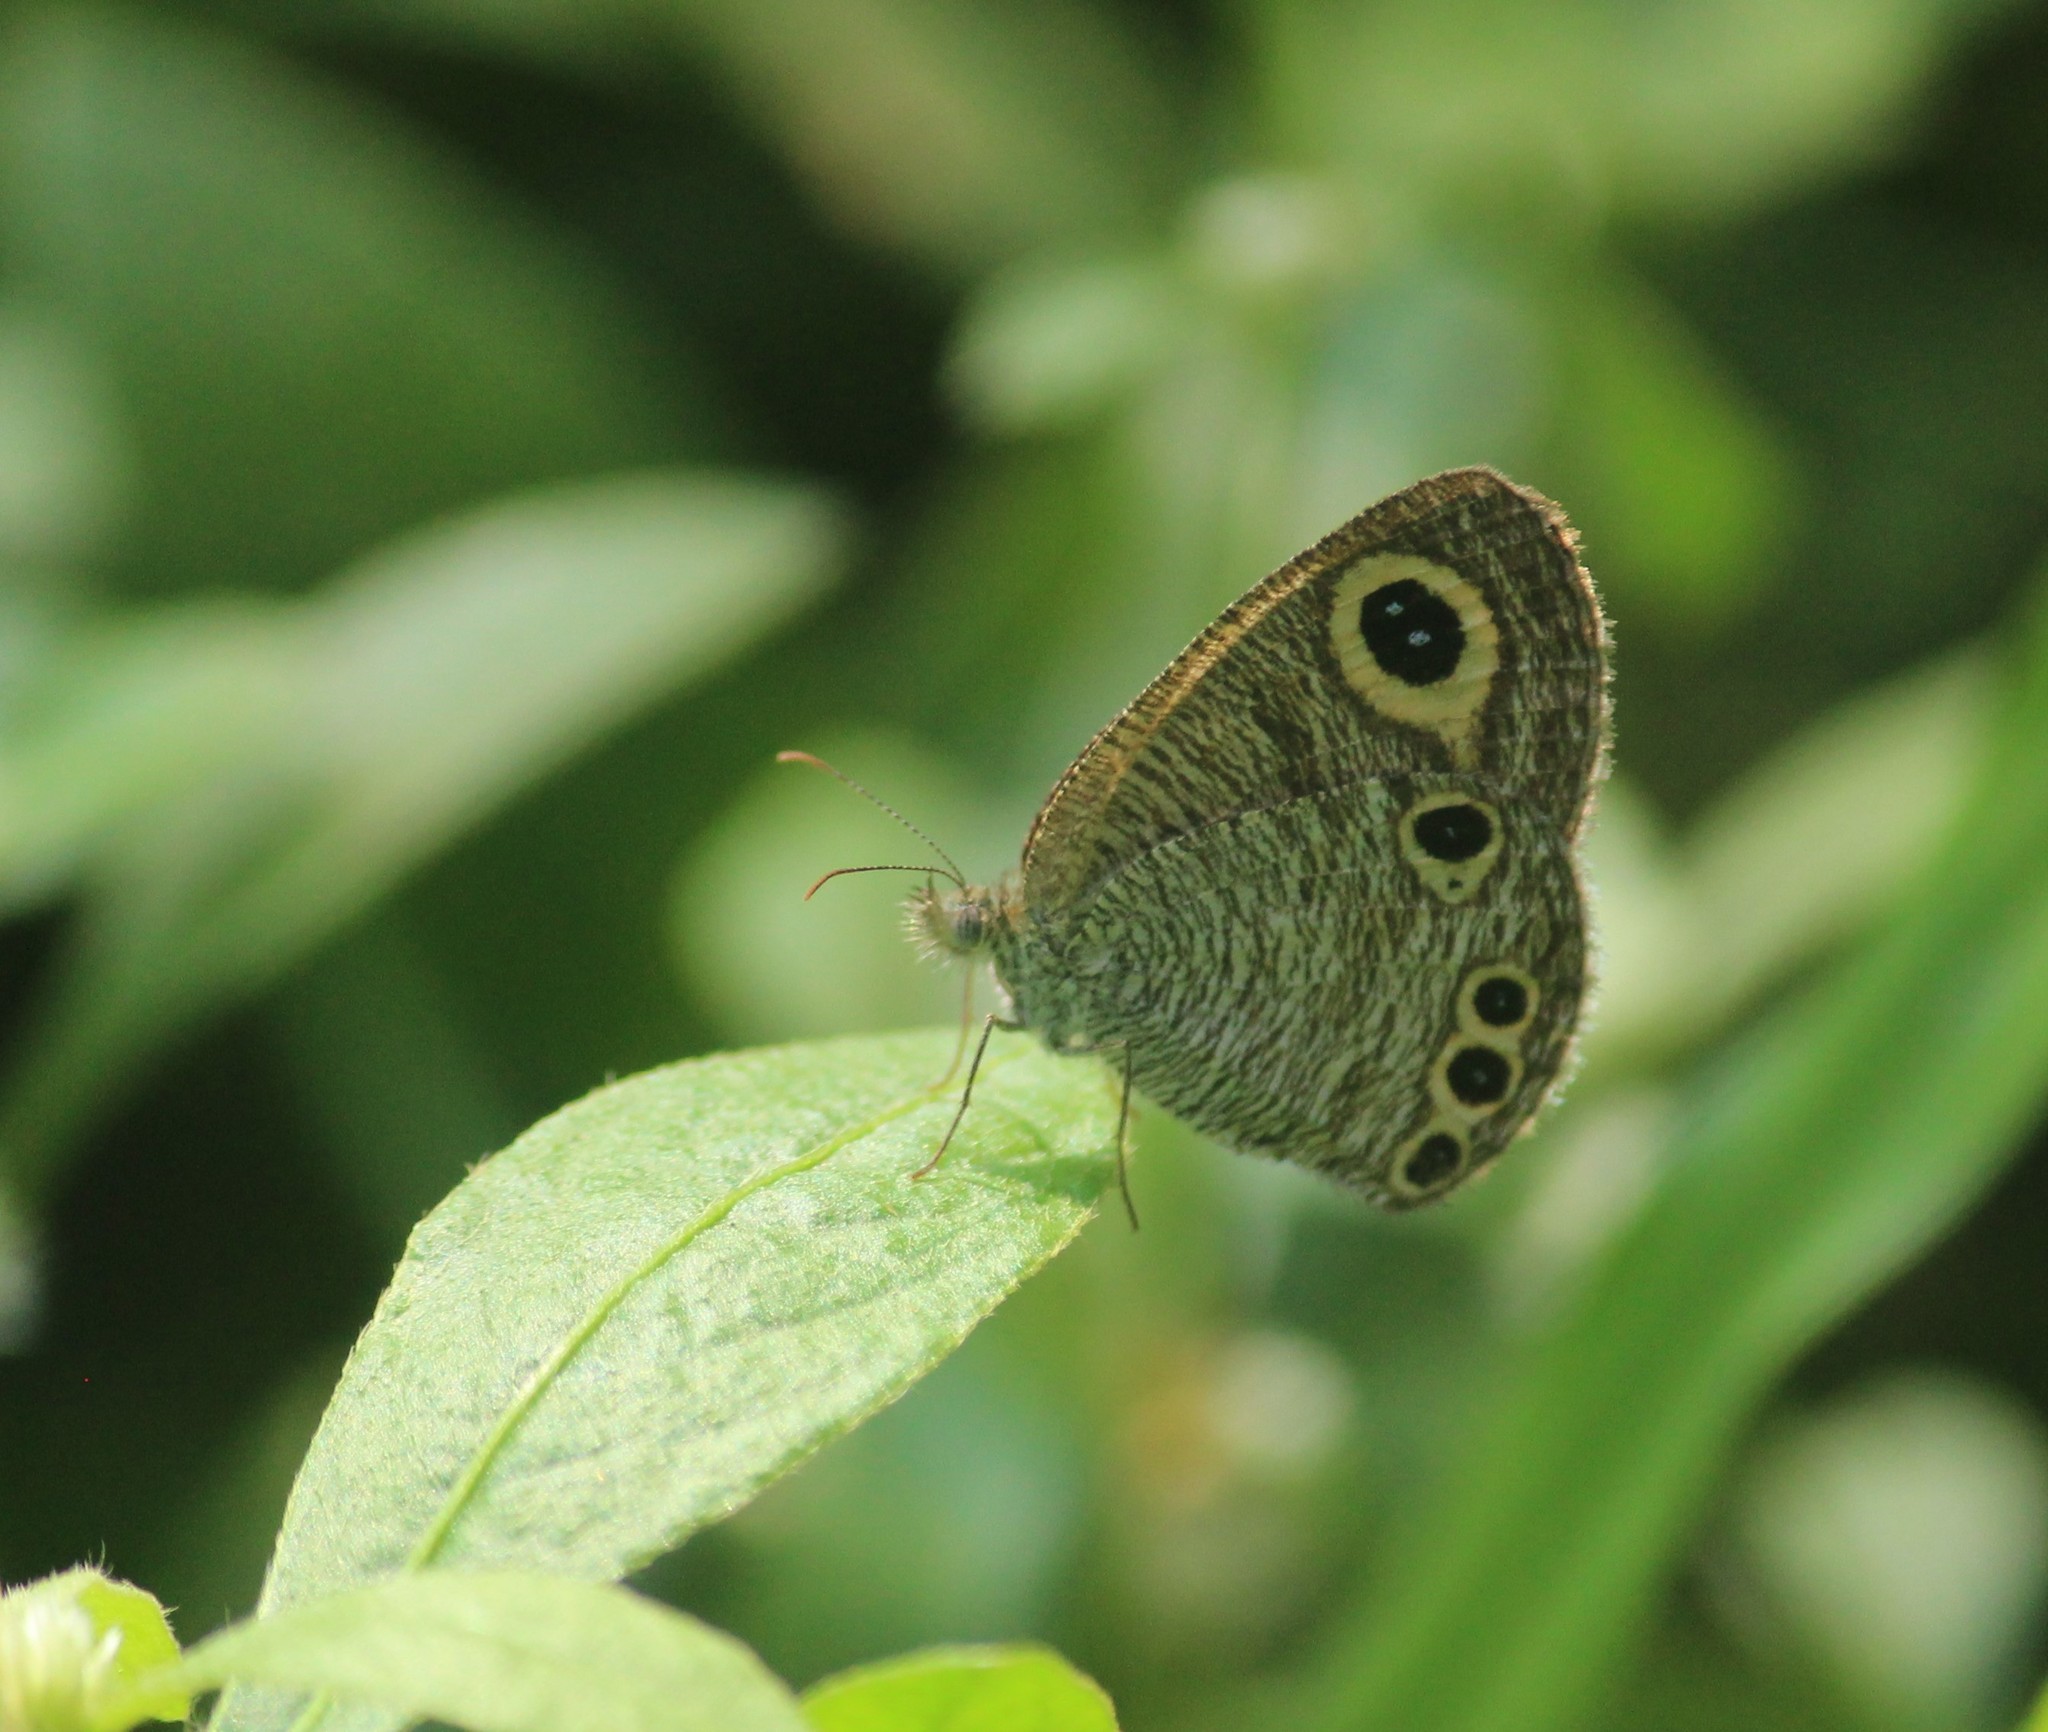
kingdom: Animalia
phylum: Arthropoda
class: Insecta
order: Lepidoptera
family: Nymphalidae
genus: Ypthima
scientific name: Ypthima huebneri
